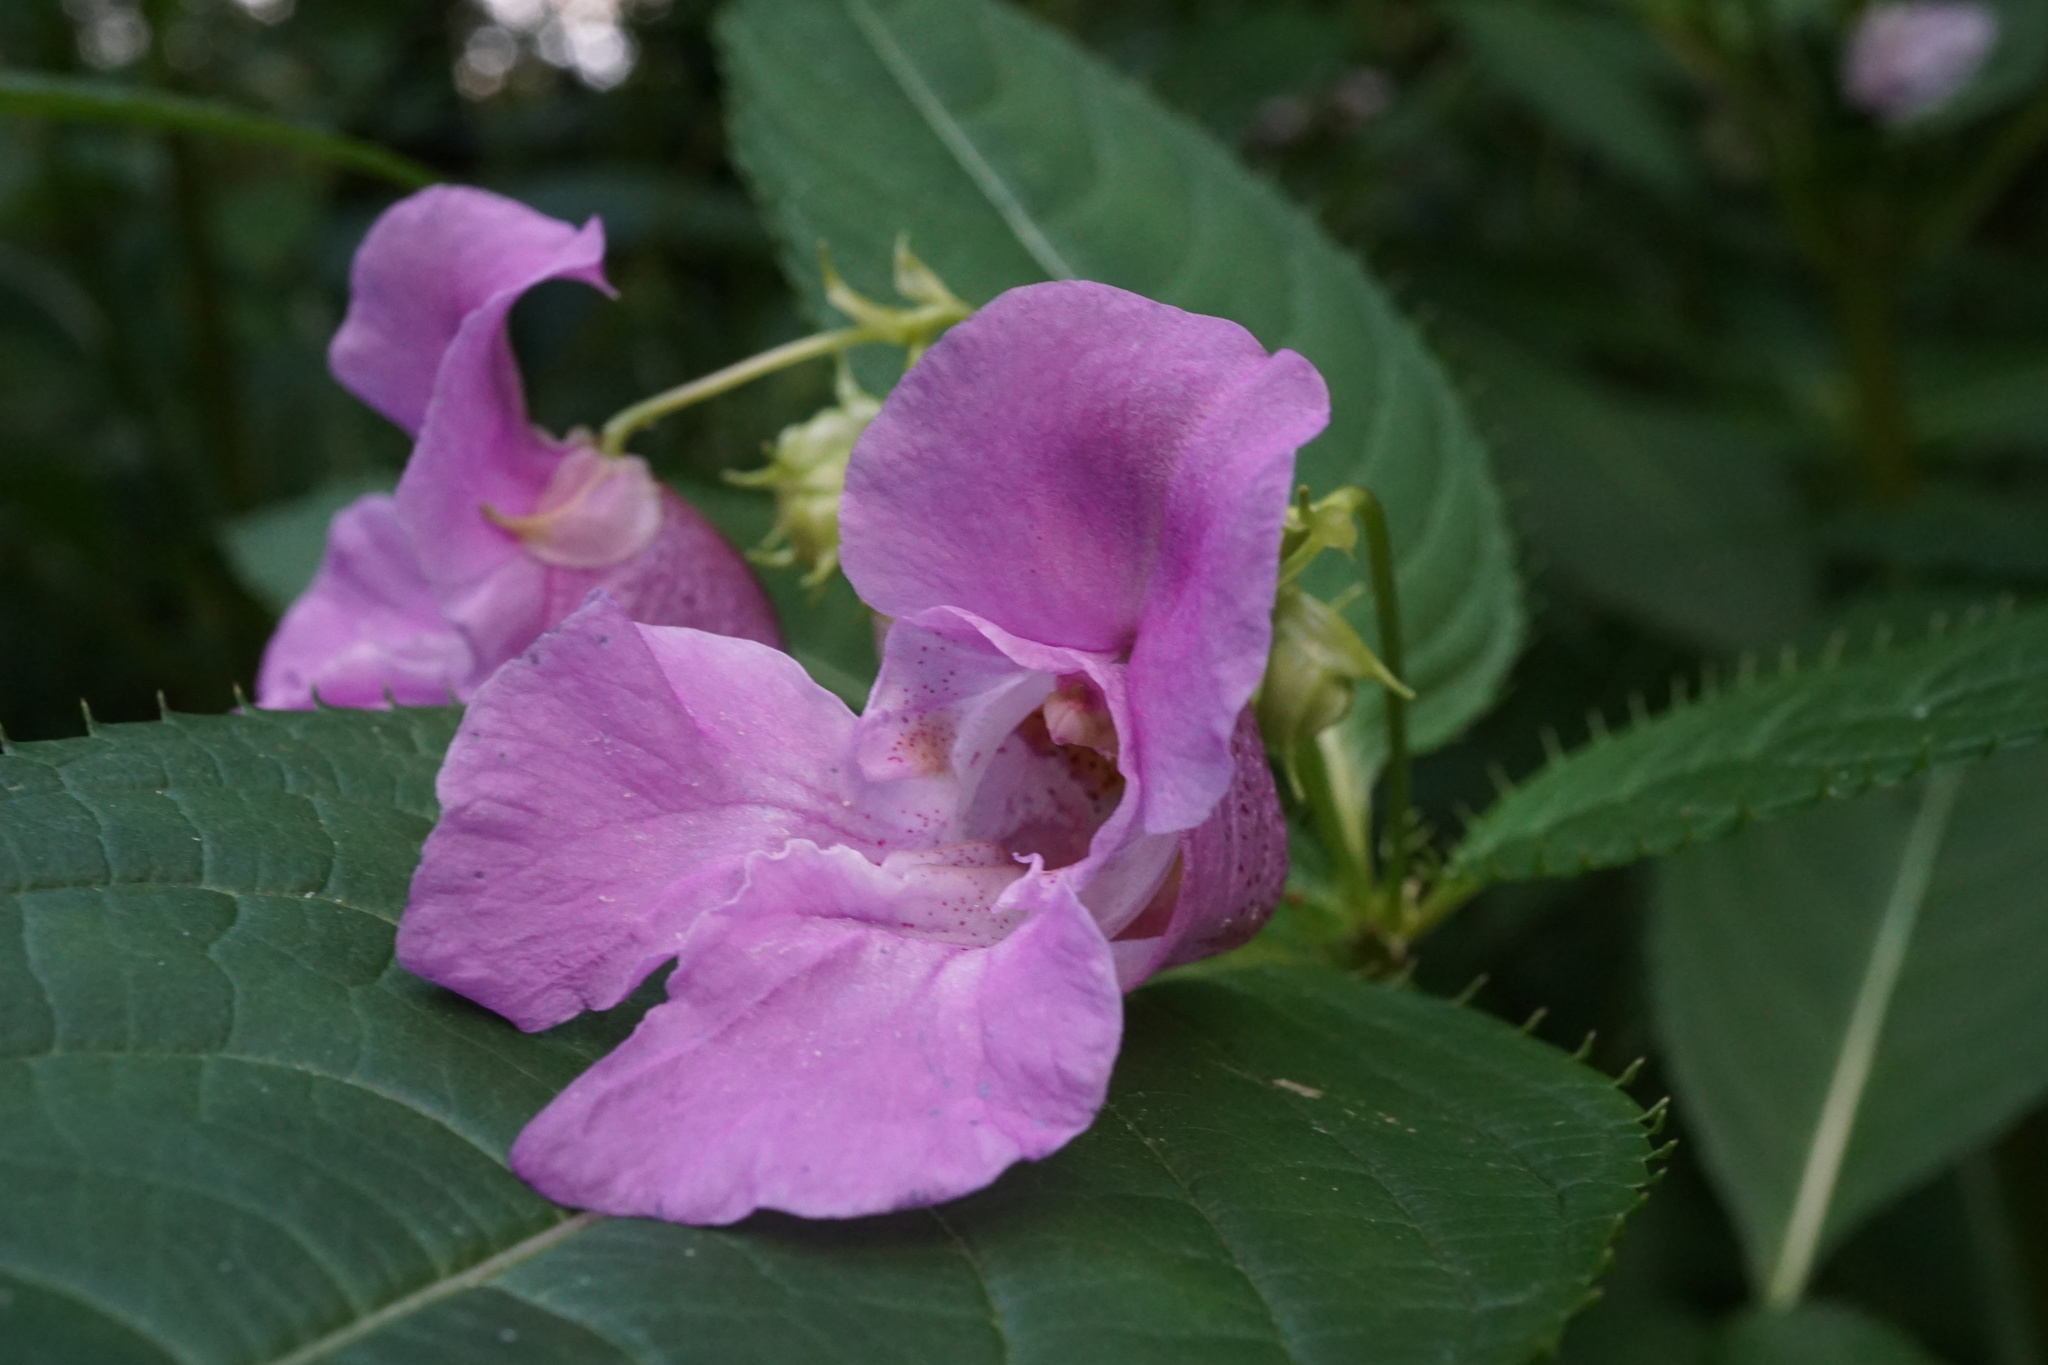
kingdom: Plantae
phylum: Tracheophyta
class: Magnoliopsida
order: Ericales
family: Balsaminaceae
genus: Impatiens
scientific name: Impatiens glandulifera
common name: Himalayan balsam
